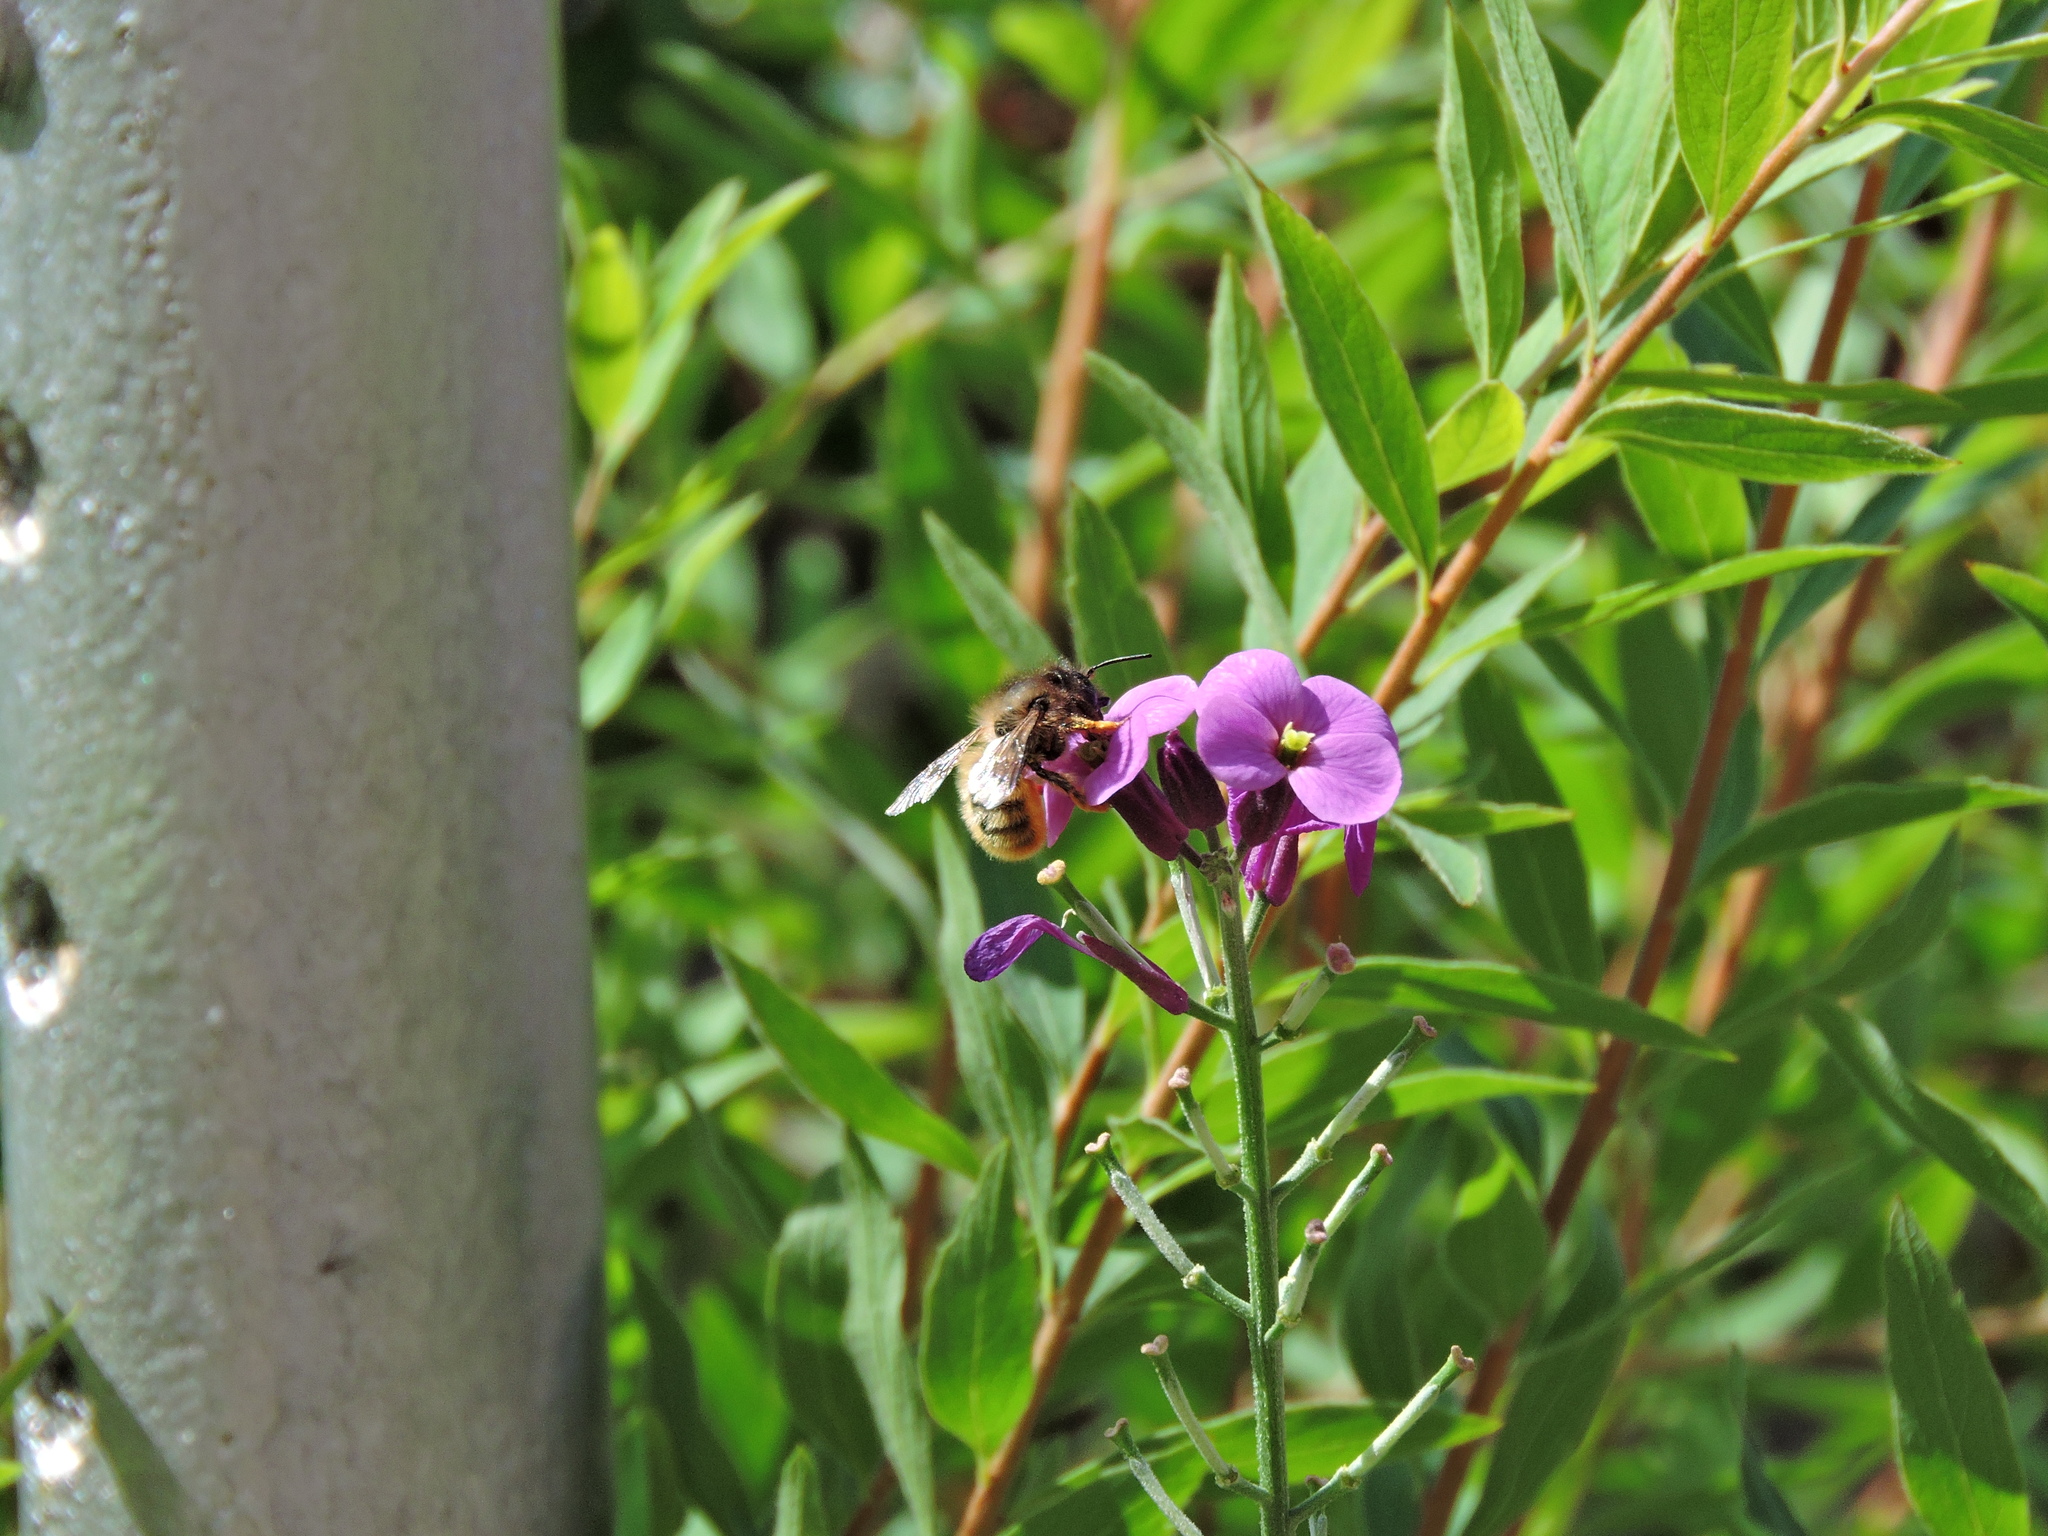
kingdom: Animalia
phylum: Arthropoda
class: Insecta
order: Hymenoptera
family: Megachilidae
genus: Osmia
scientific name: Osmia bicornis
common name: Red mason bee
